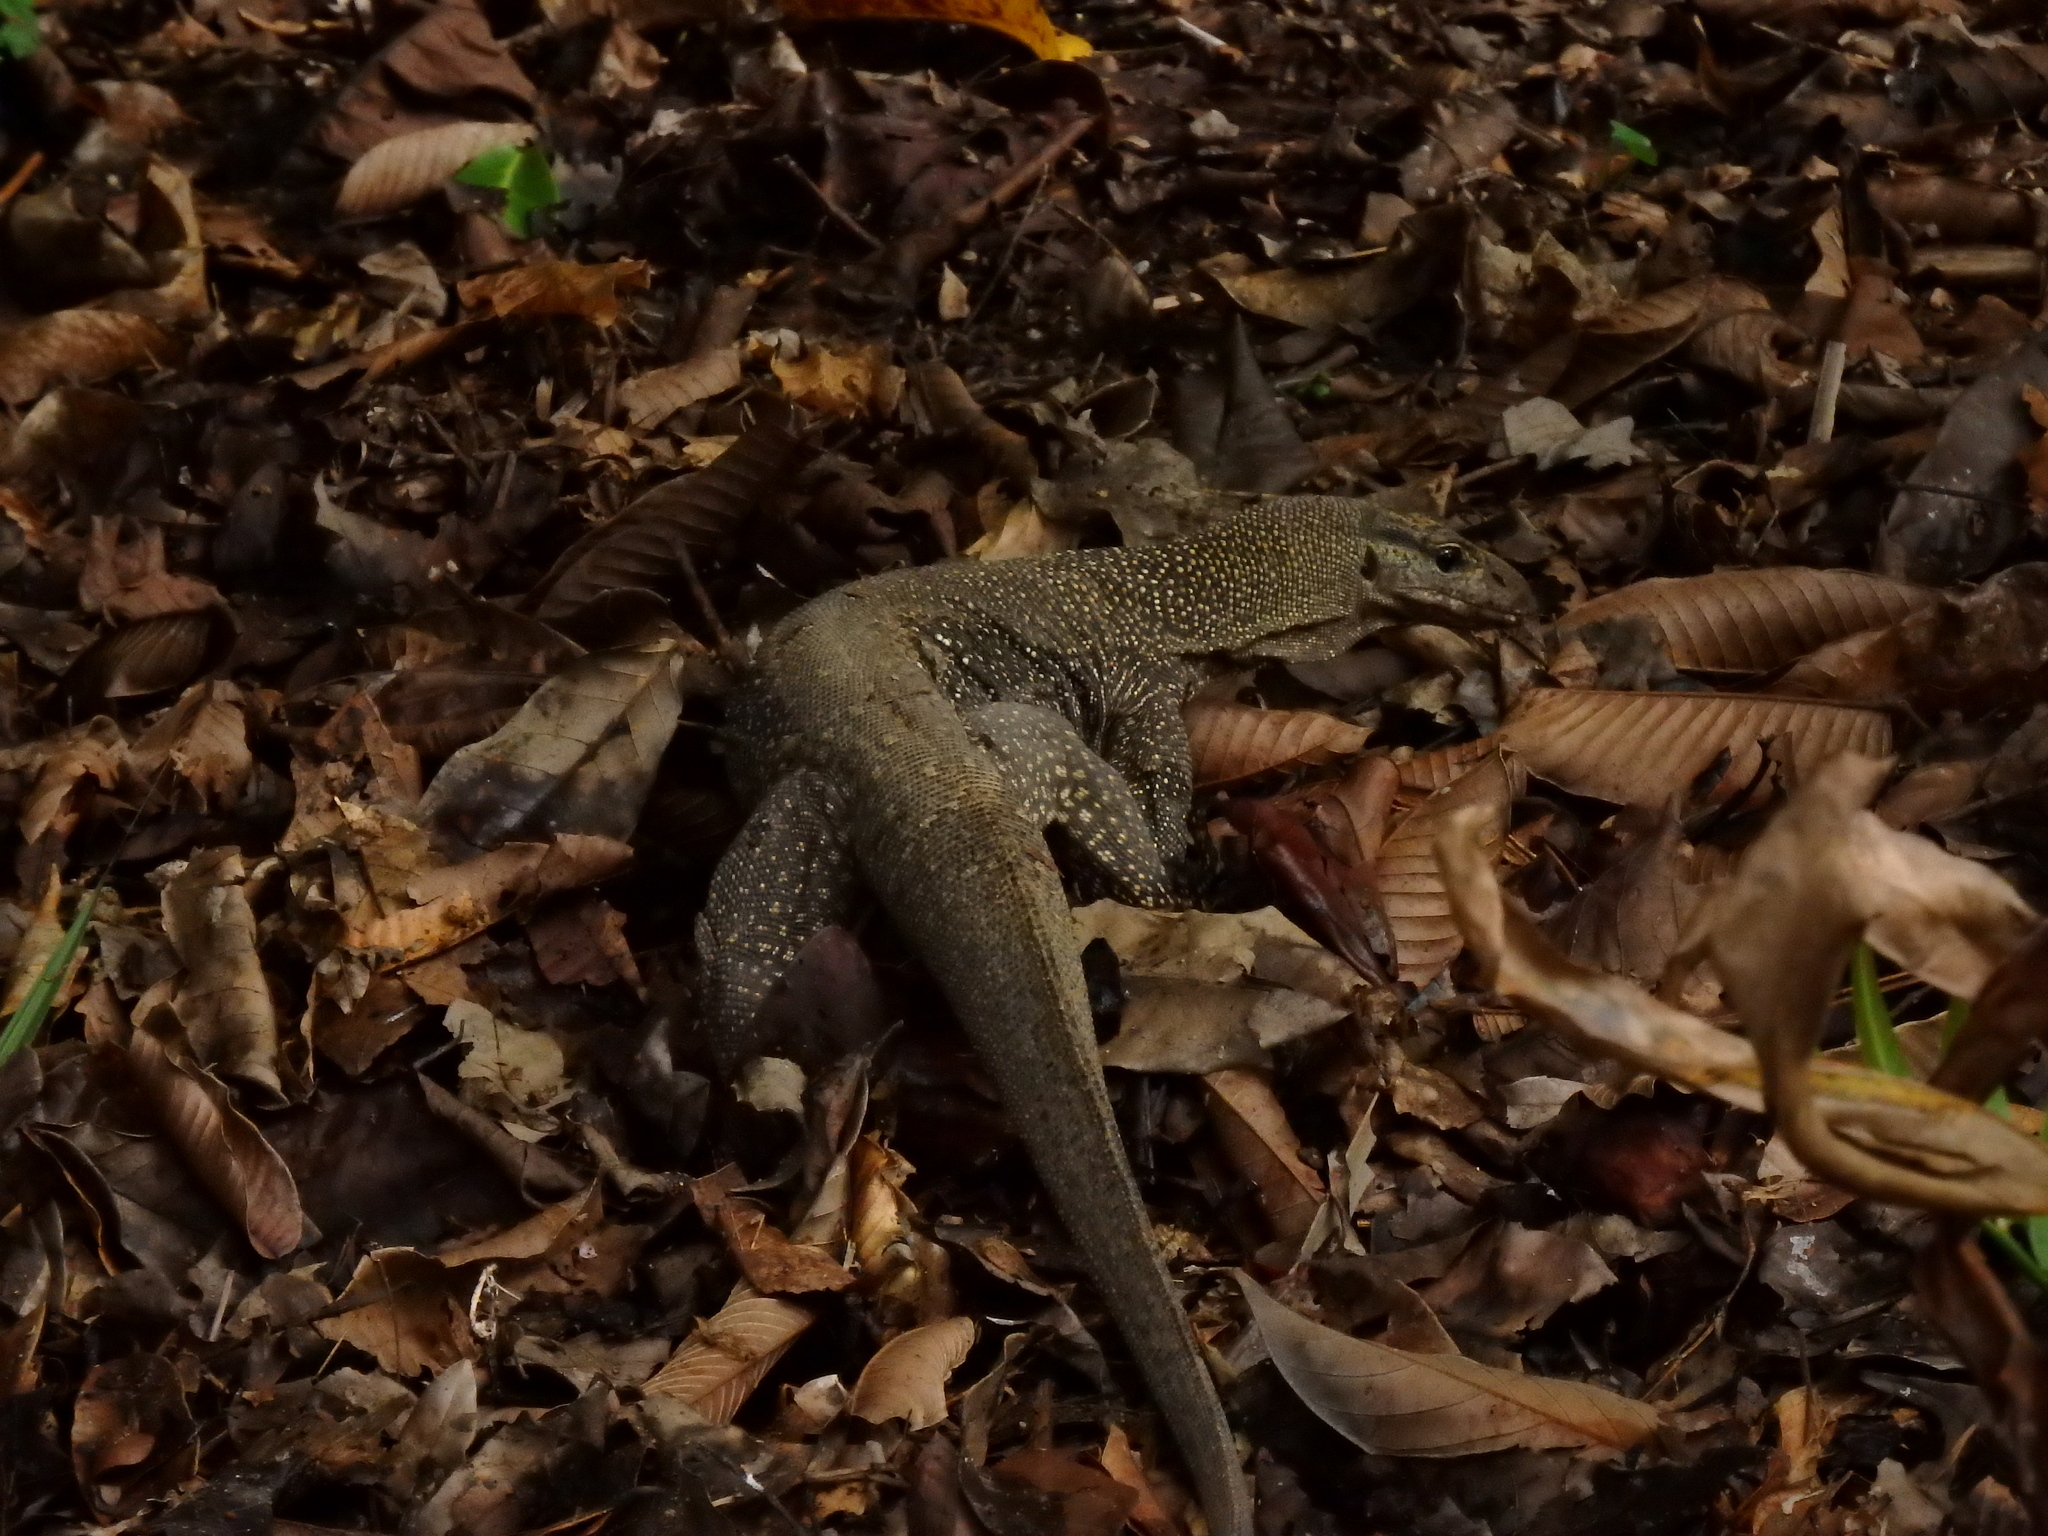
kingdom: Animalia
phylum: Chordata
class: Squamata
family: Varanidae
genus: Varanus
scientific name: Varanus nebulosus
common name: Clouded monitor
